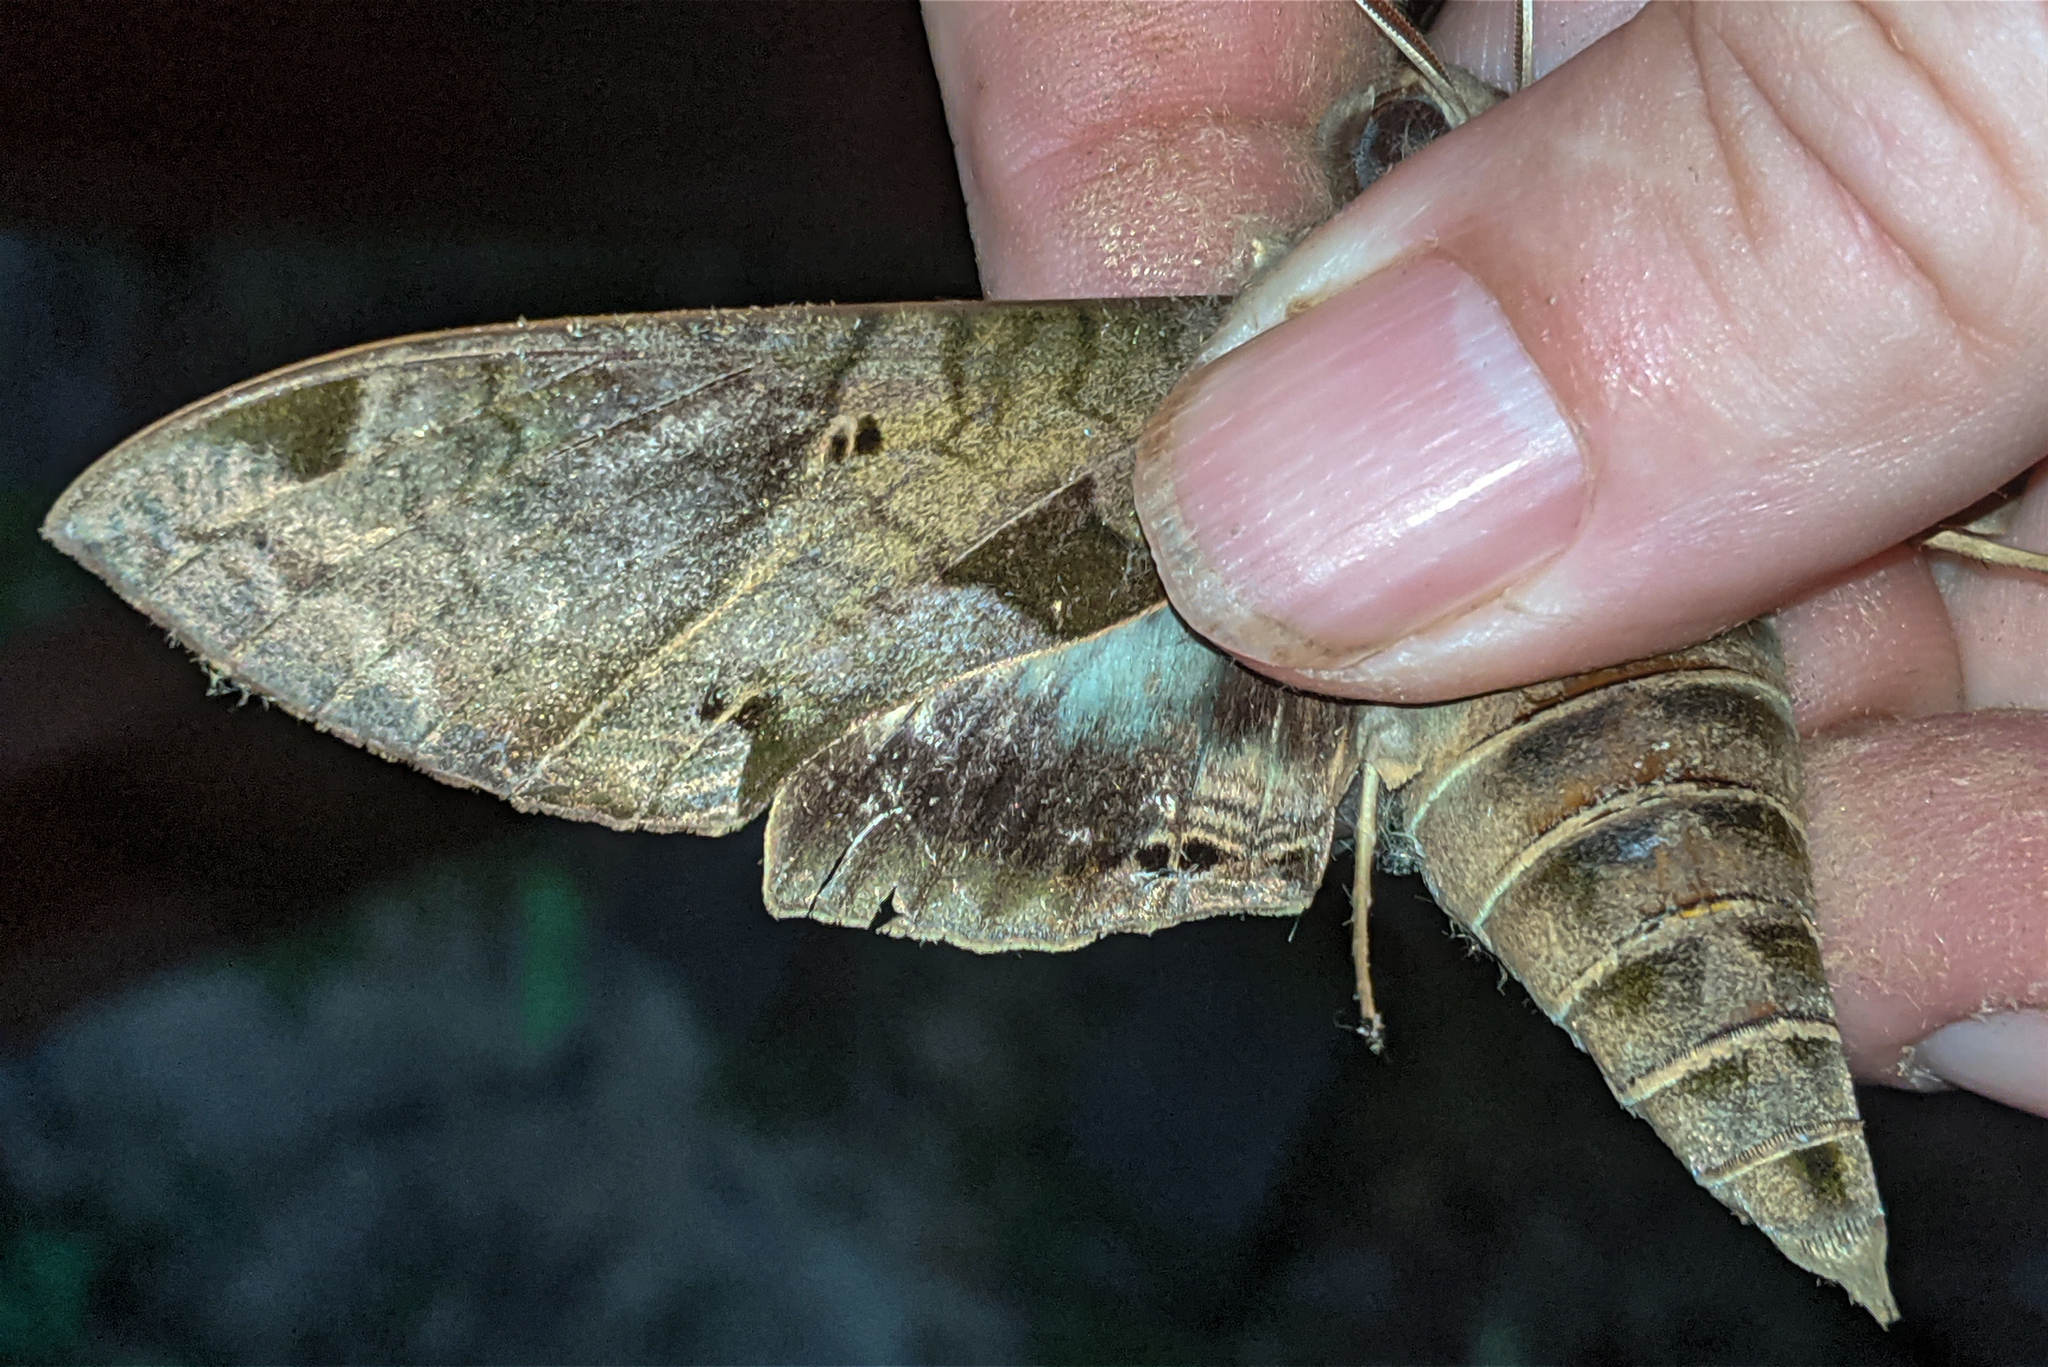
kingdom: Animalia
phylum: Arthropoda
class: Insecta
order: Lepidoptera
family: Sphingidae
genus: Eumorpha
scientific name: Eumorpha satellitia
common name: Satellite sphinx
